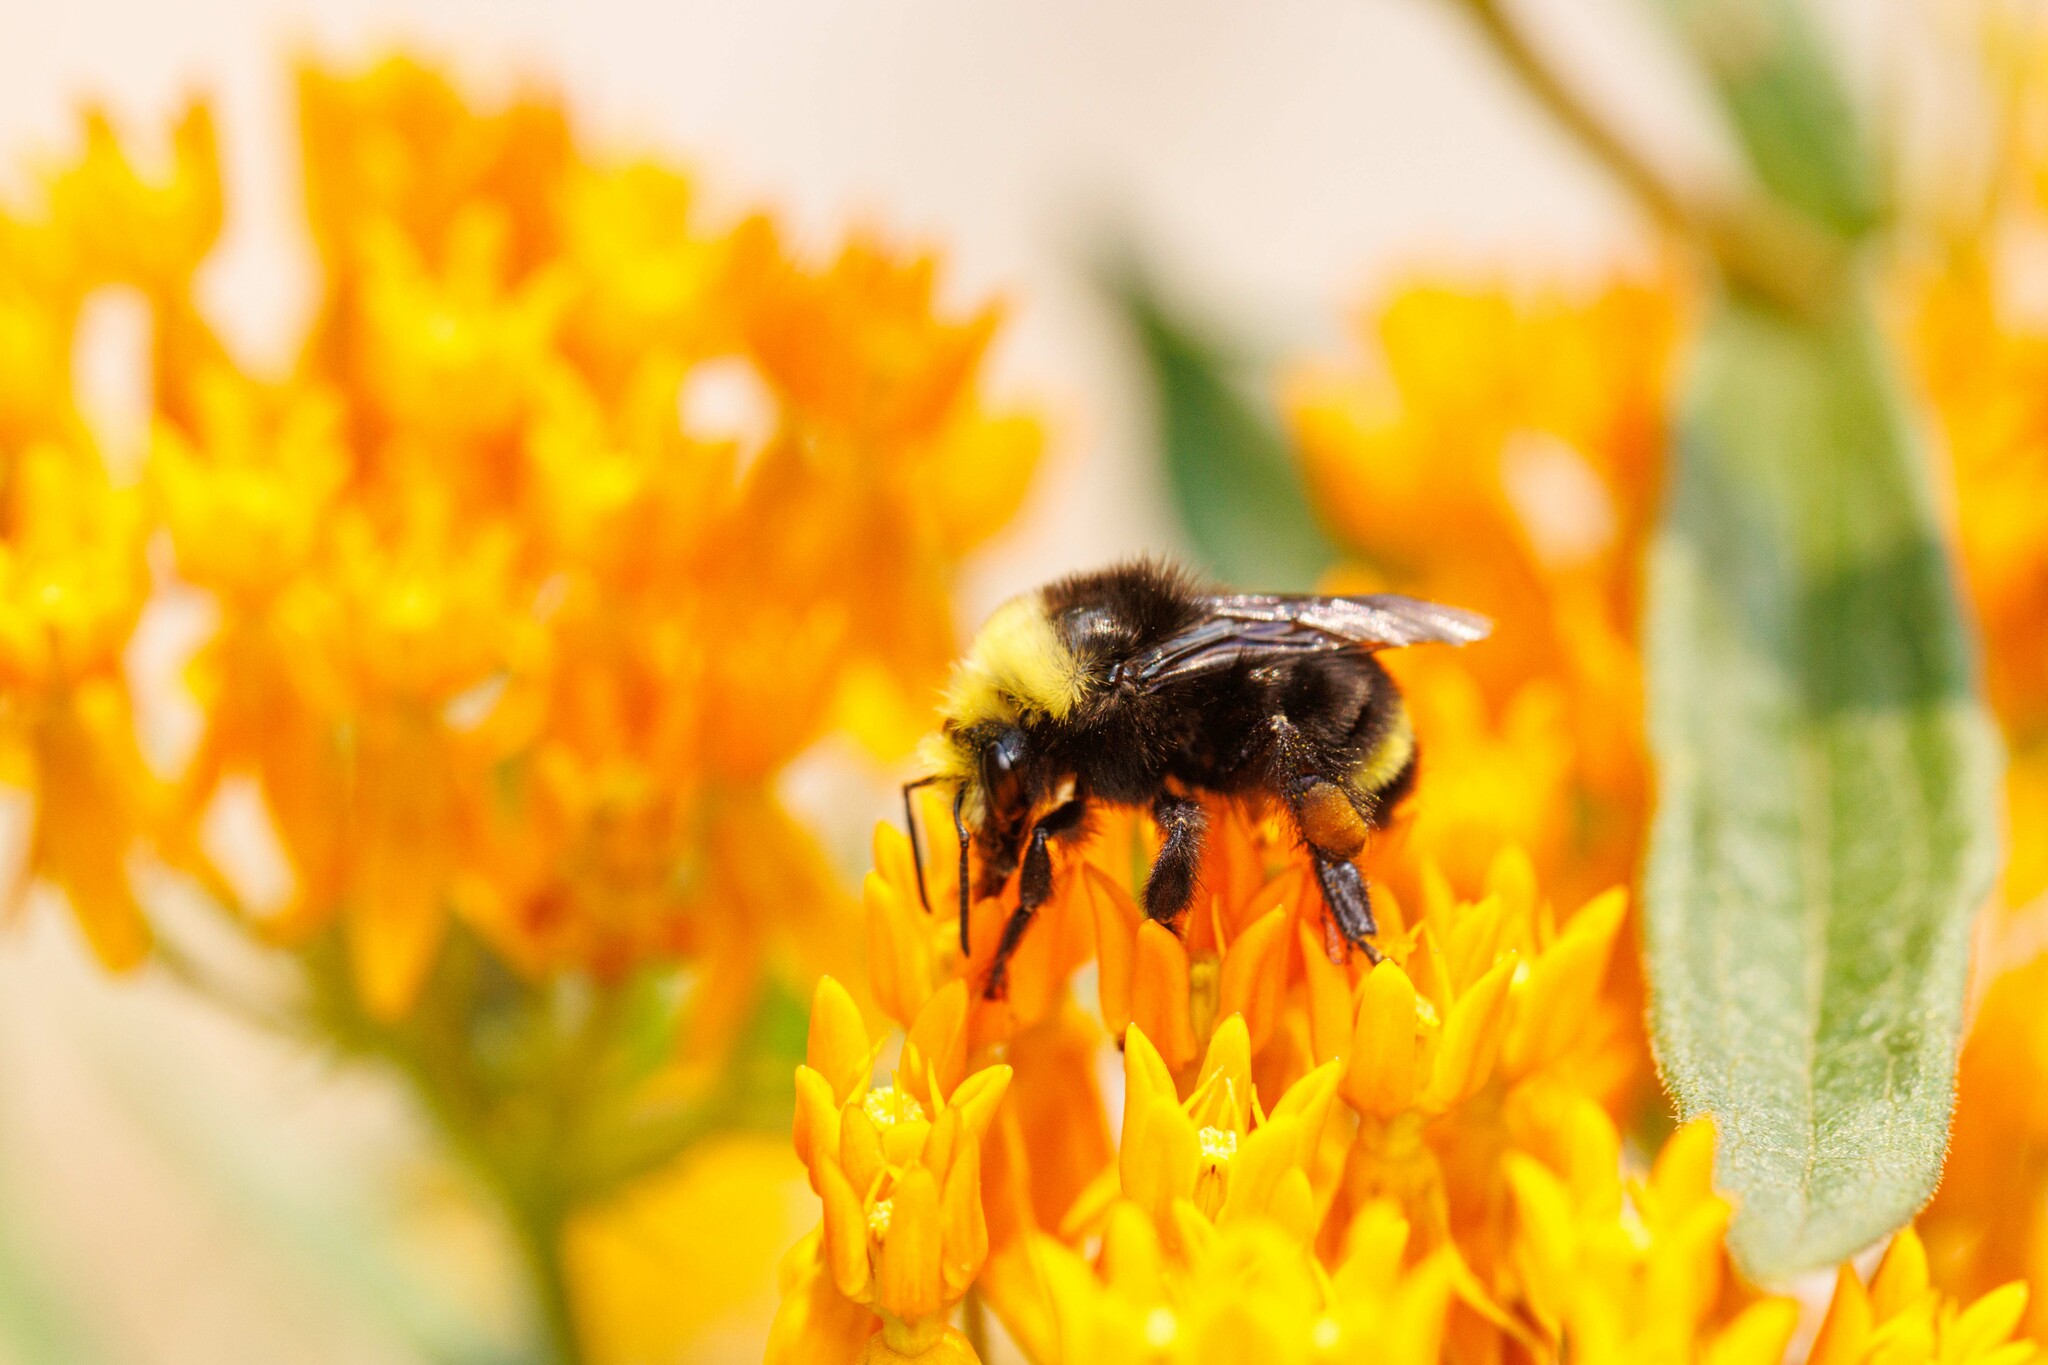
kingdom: Animalia
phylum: Arthropoda
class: Insecta
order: Hymenoptera
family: Apidae
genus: Bombus
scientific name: Bombus vosnesenskii
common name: Vosnesensky bumble bee
